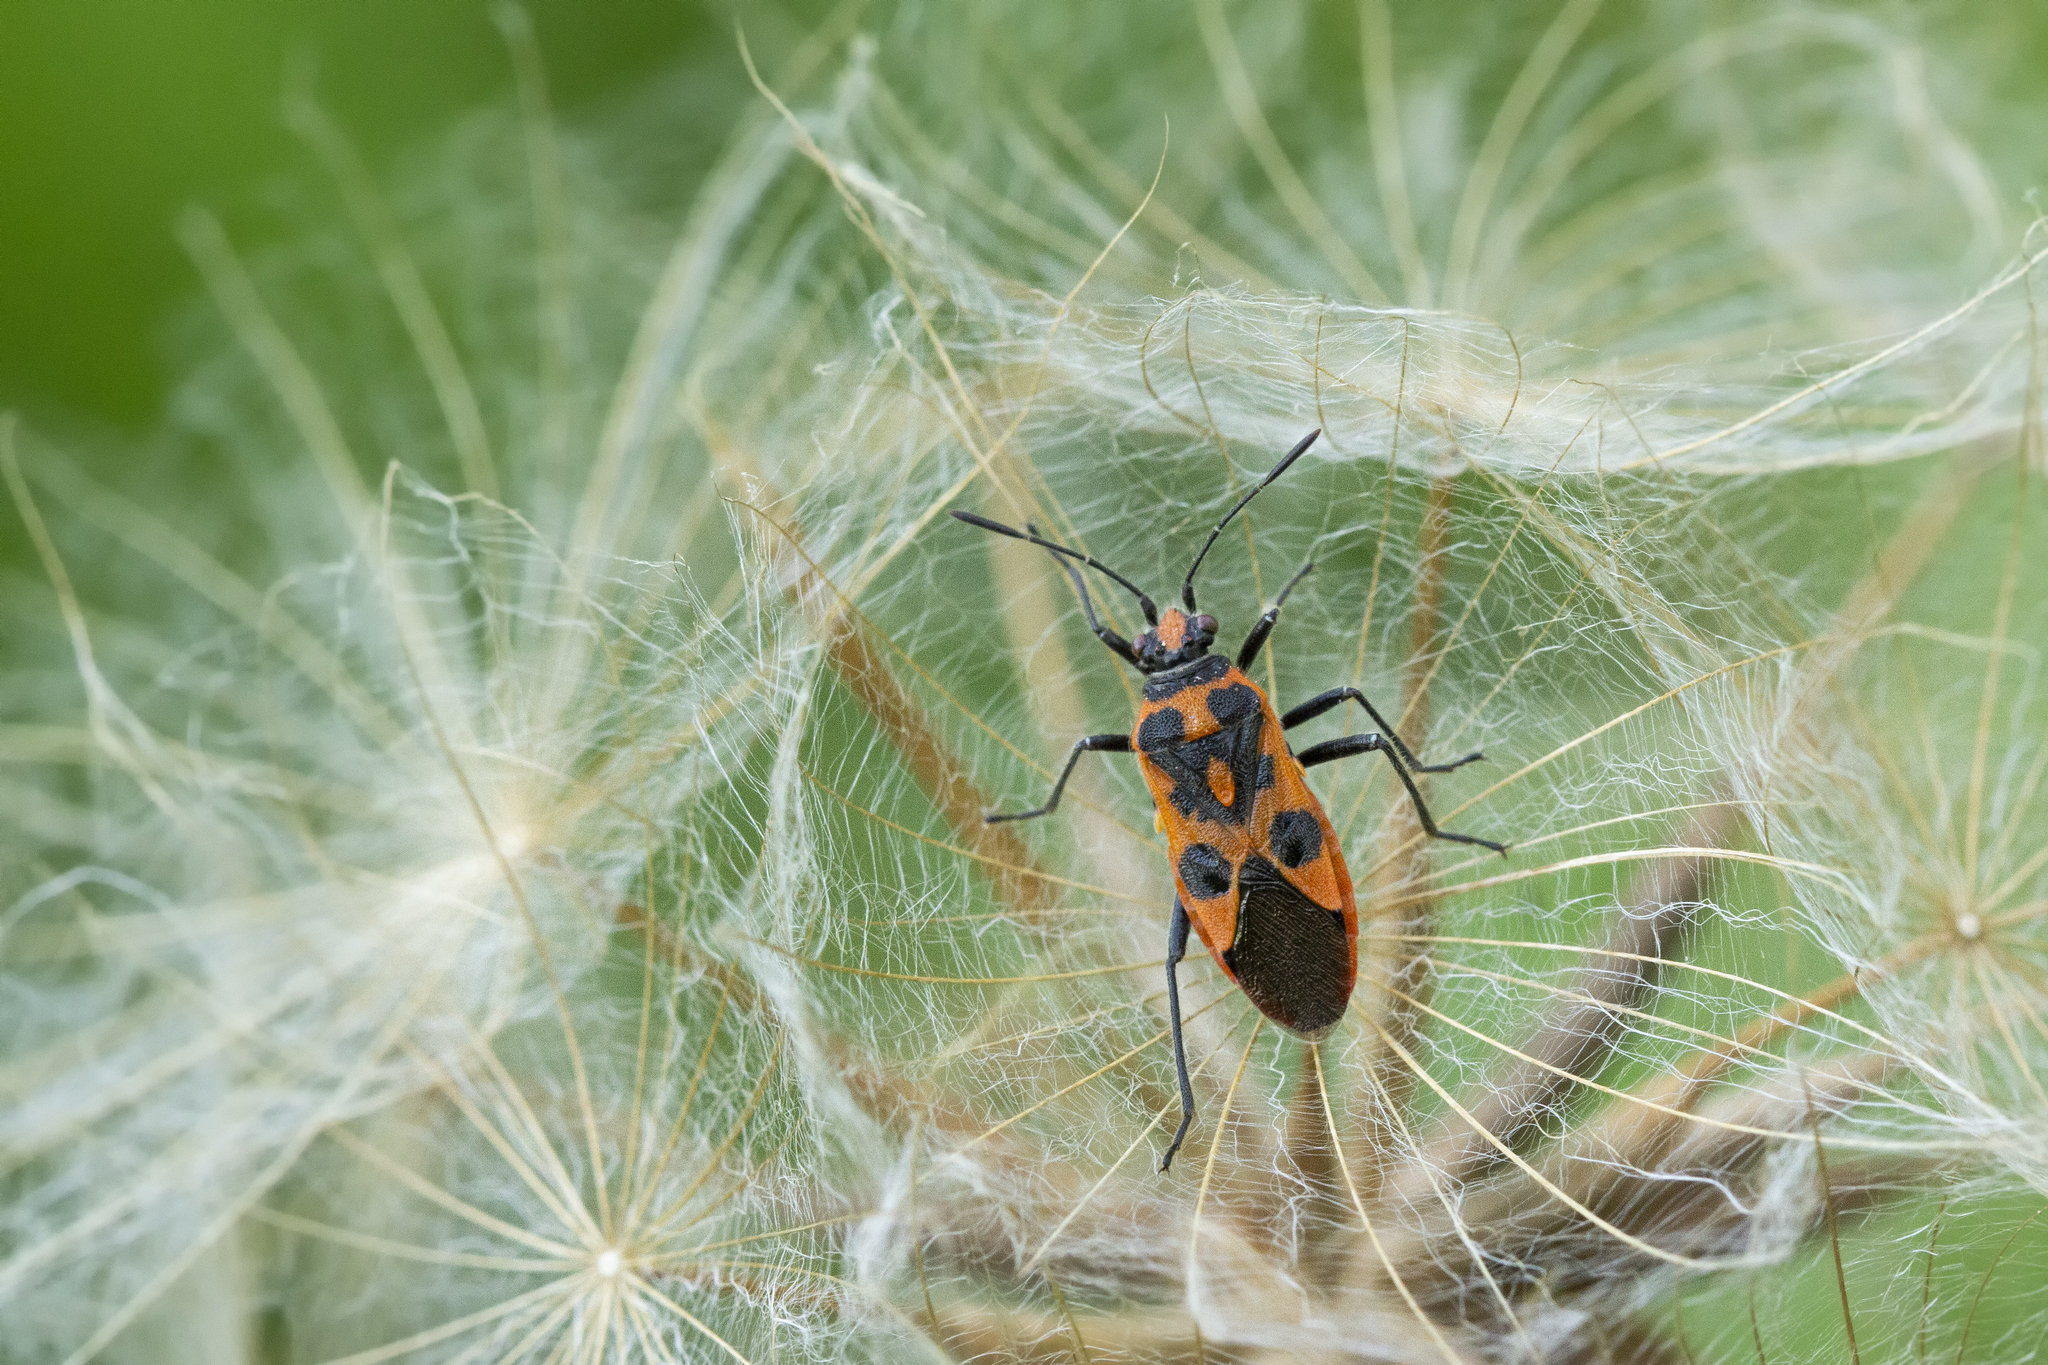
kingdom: Animalia
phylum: Arthropoda
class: Insecta
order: Hemiptera
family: Rhopalidae
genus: Corizus
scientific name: Corizus hyoscyami
